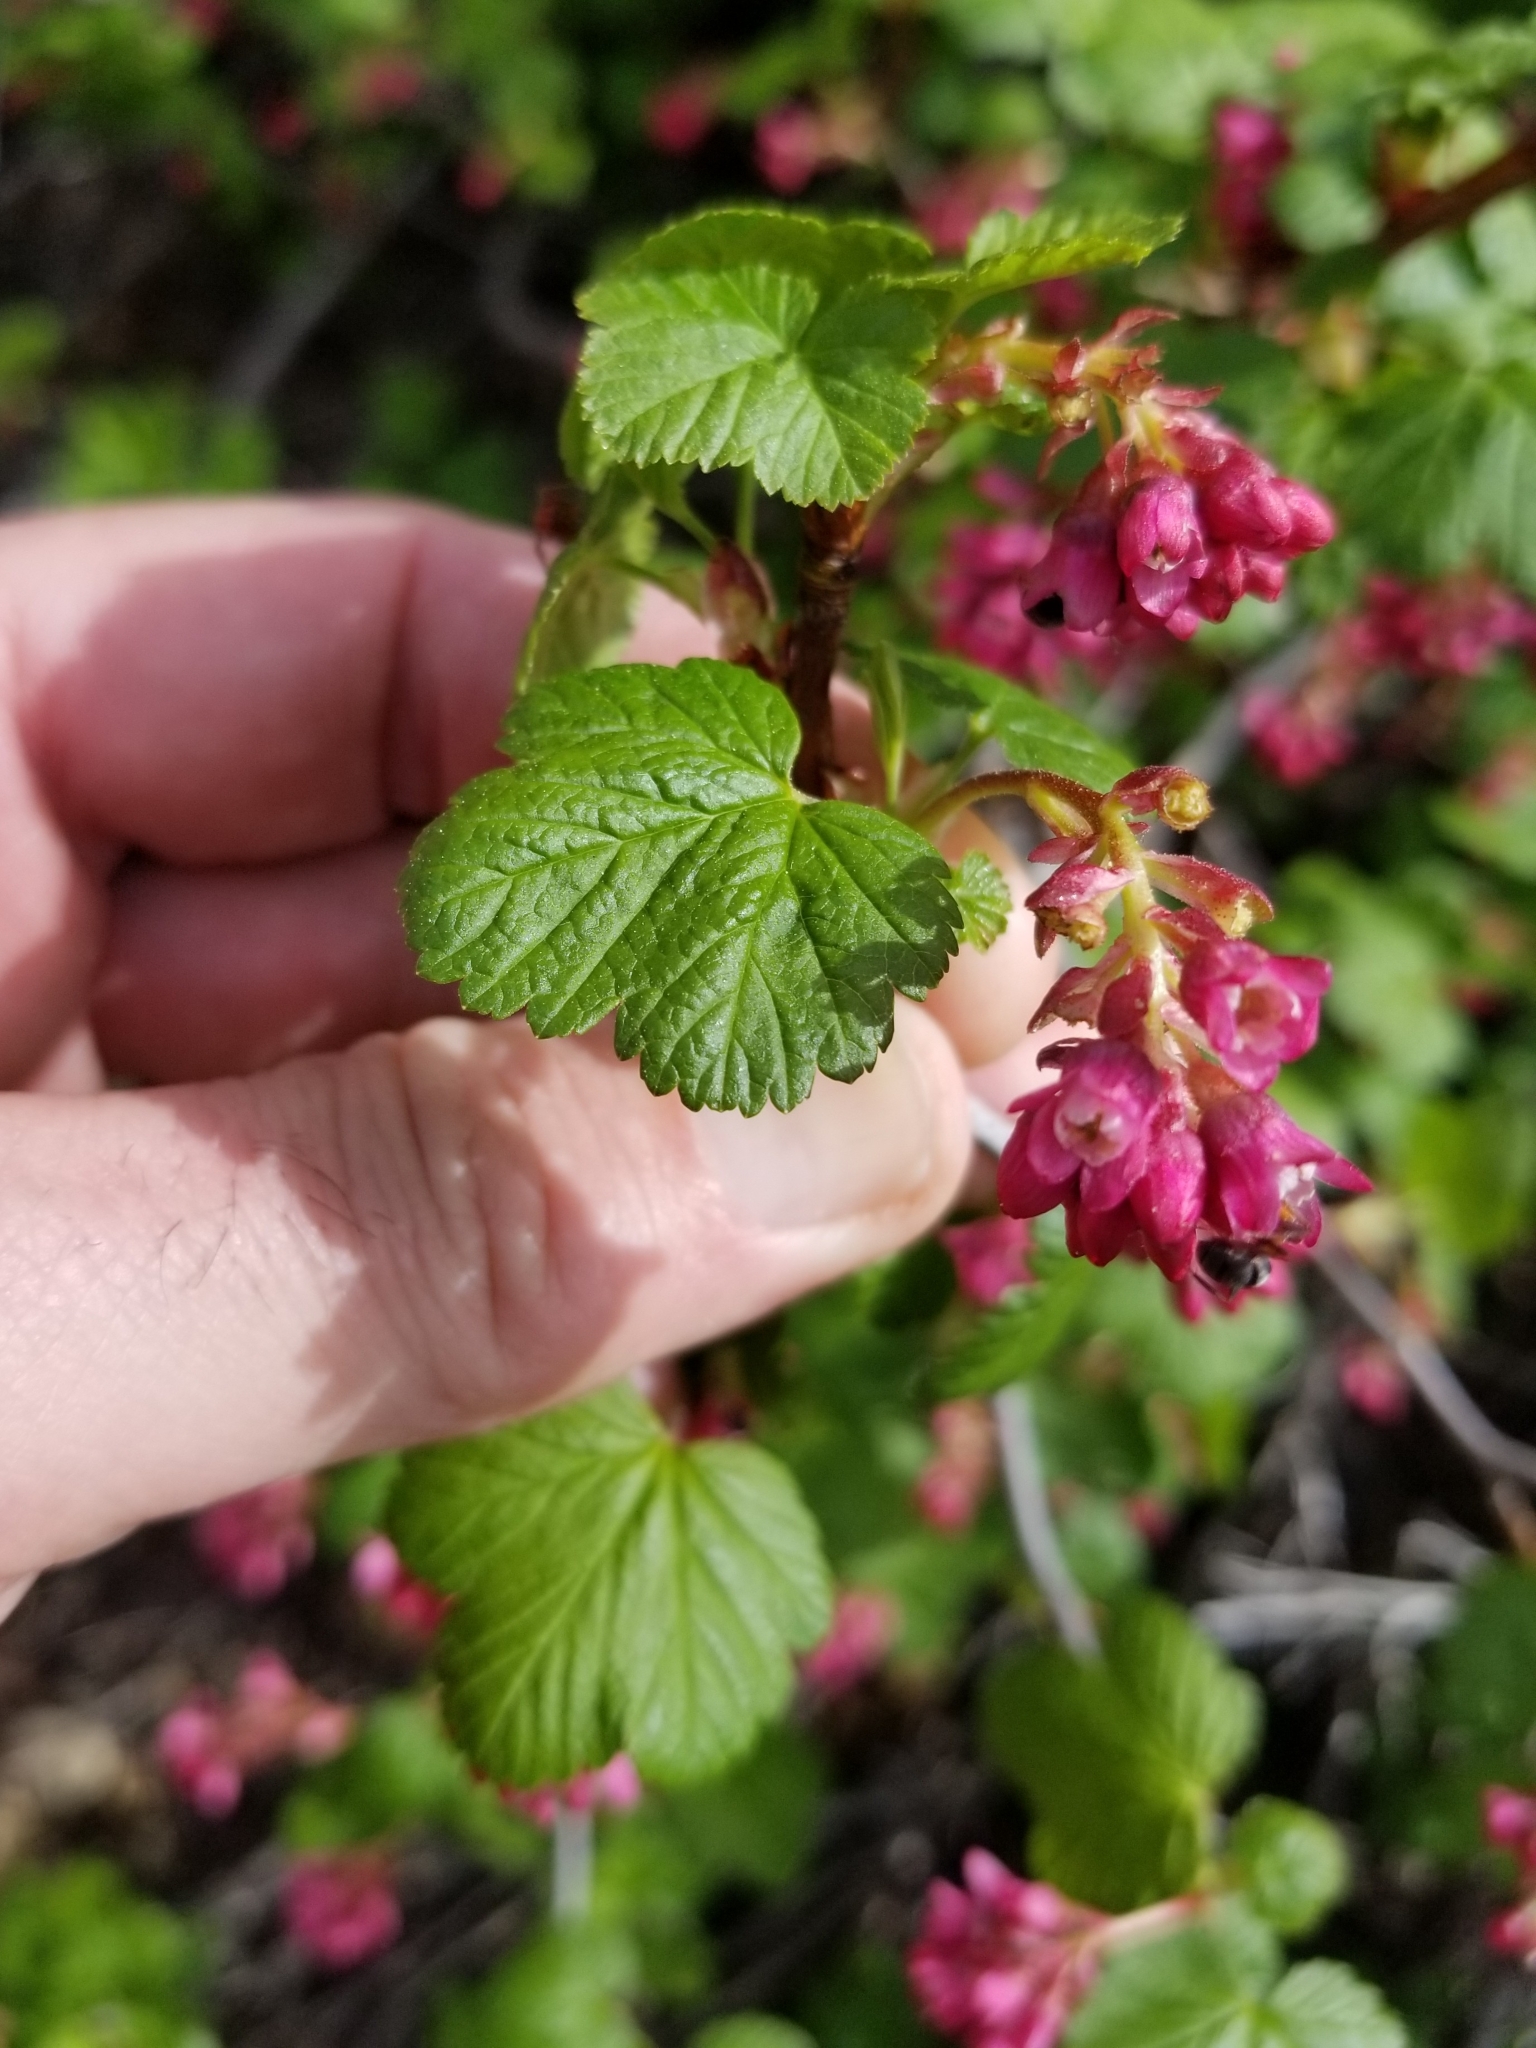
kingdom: Plantae
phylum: Tracheophyta
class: Magnoliopsida
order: Saxifragales
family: Grossulariaceae
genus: Ribes
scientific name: Ribes nevadense
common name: Mountain pink currant
